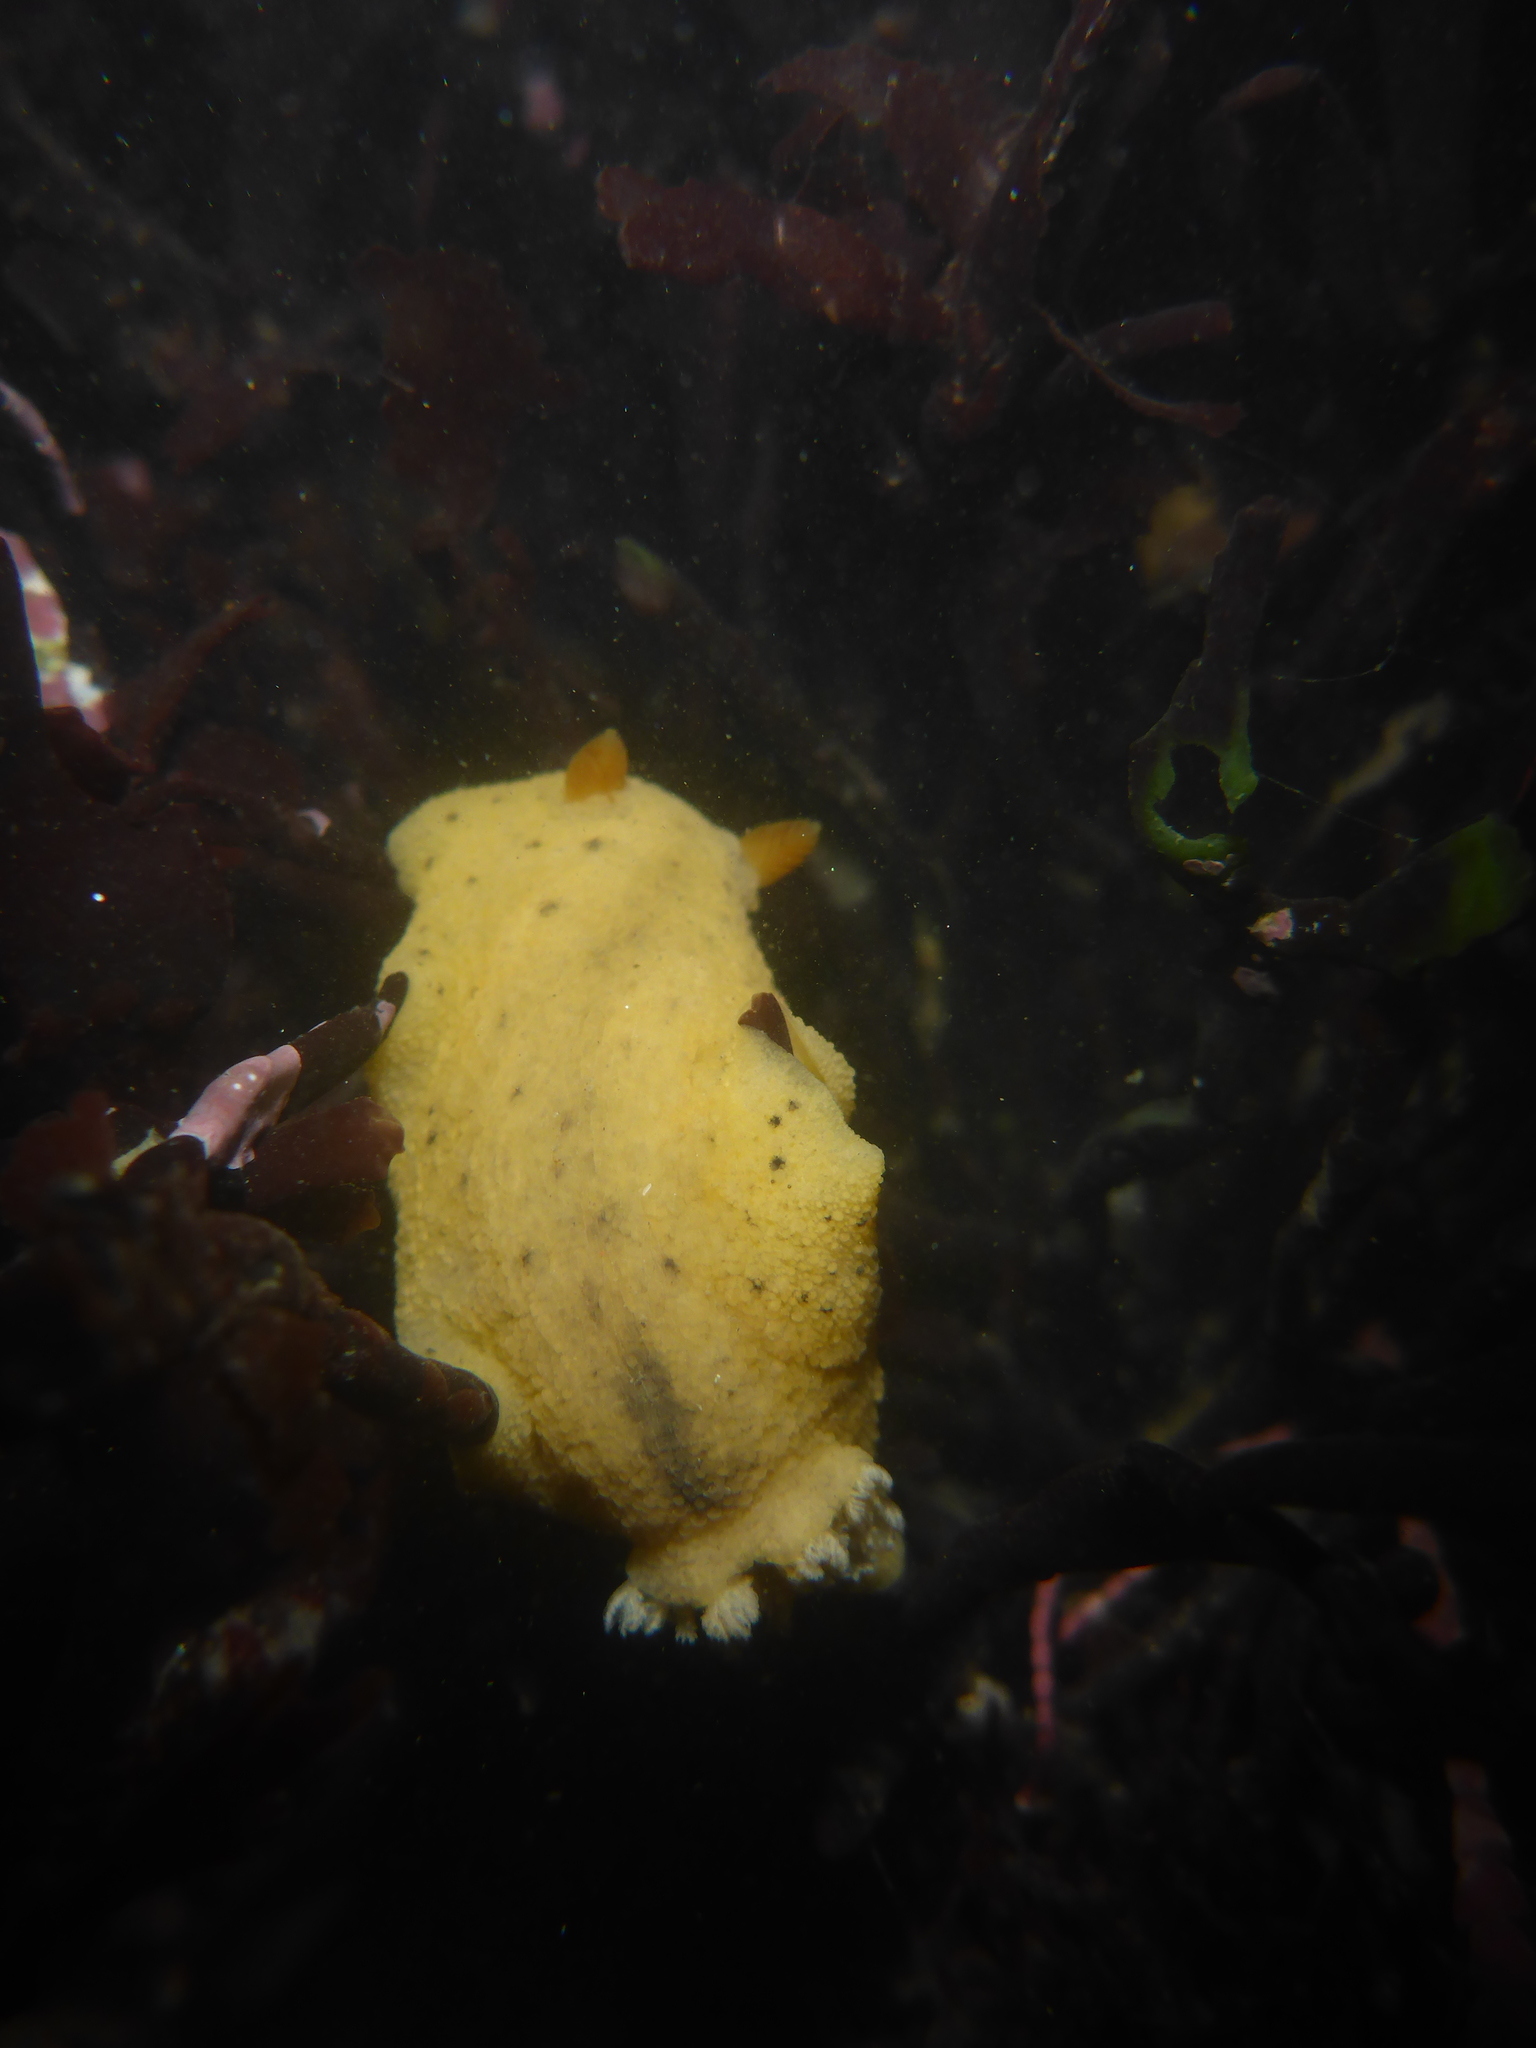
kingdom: Animalia
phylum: Mollusca
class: Gastropoda
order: Nudibranchia
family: Discodorididae
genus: Geitodoris
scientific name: Geitodoris heathi
